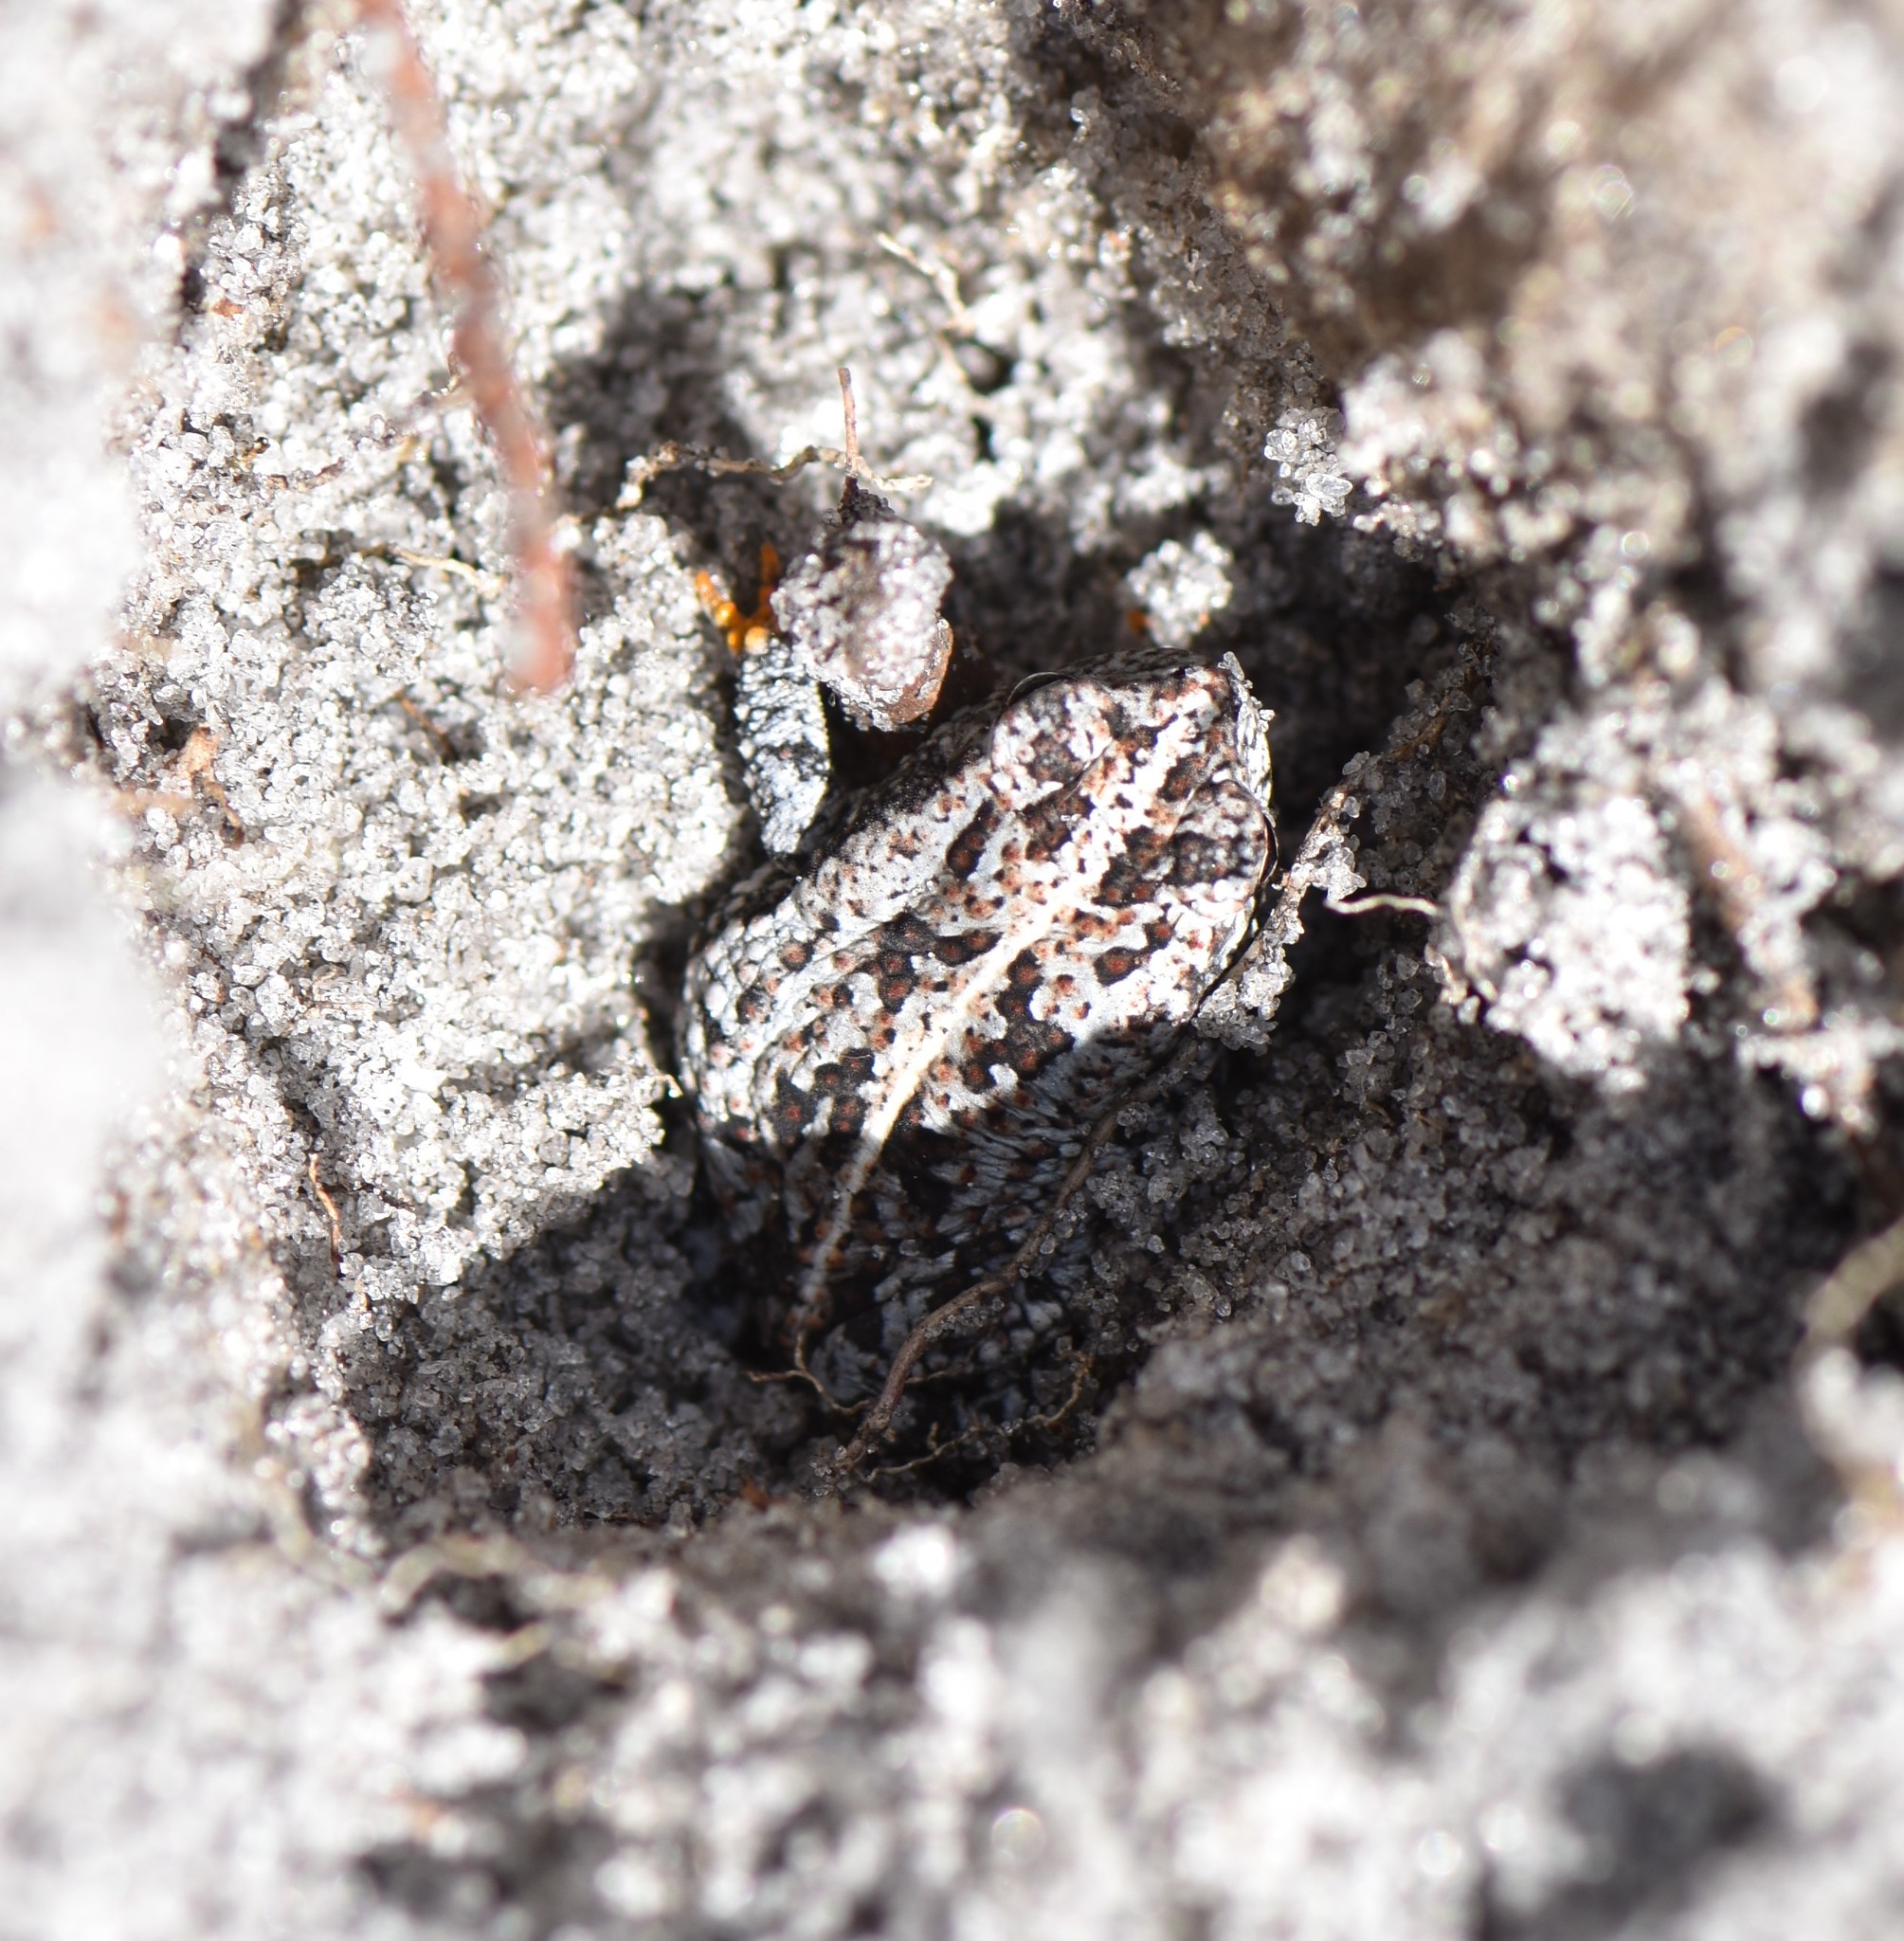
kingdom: Animalia
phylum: Chordata
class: Amphibia
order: Anura
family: Bufonidae
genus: Anaxyrus
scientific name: Anaxyrus quercicus
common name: Oak toad
